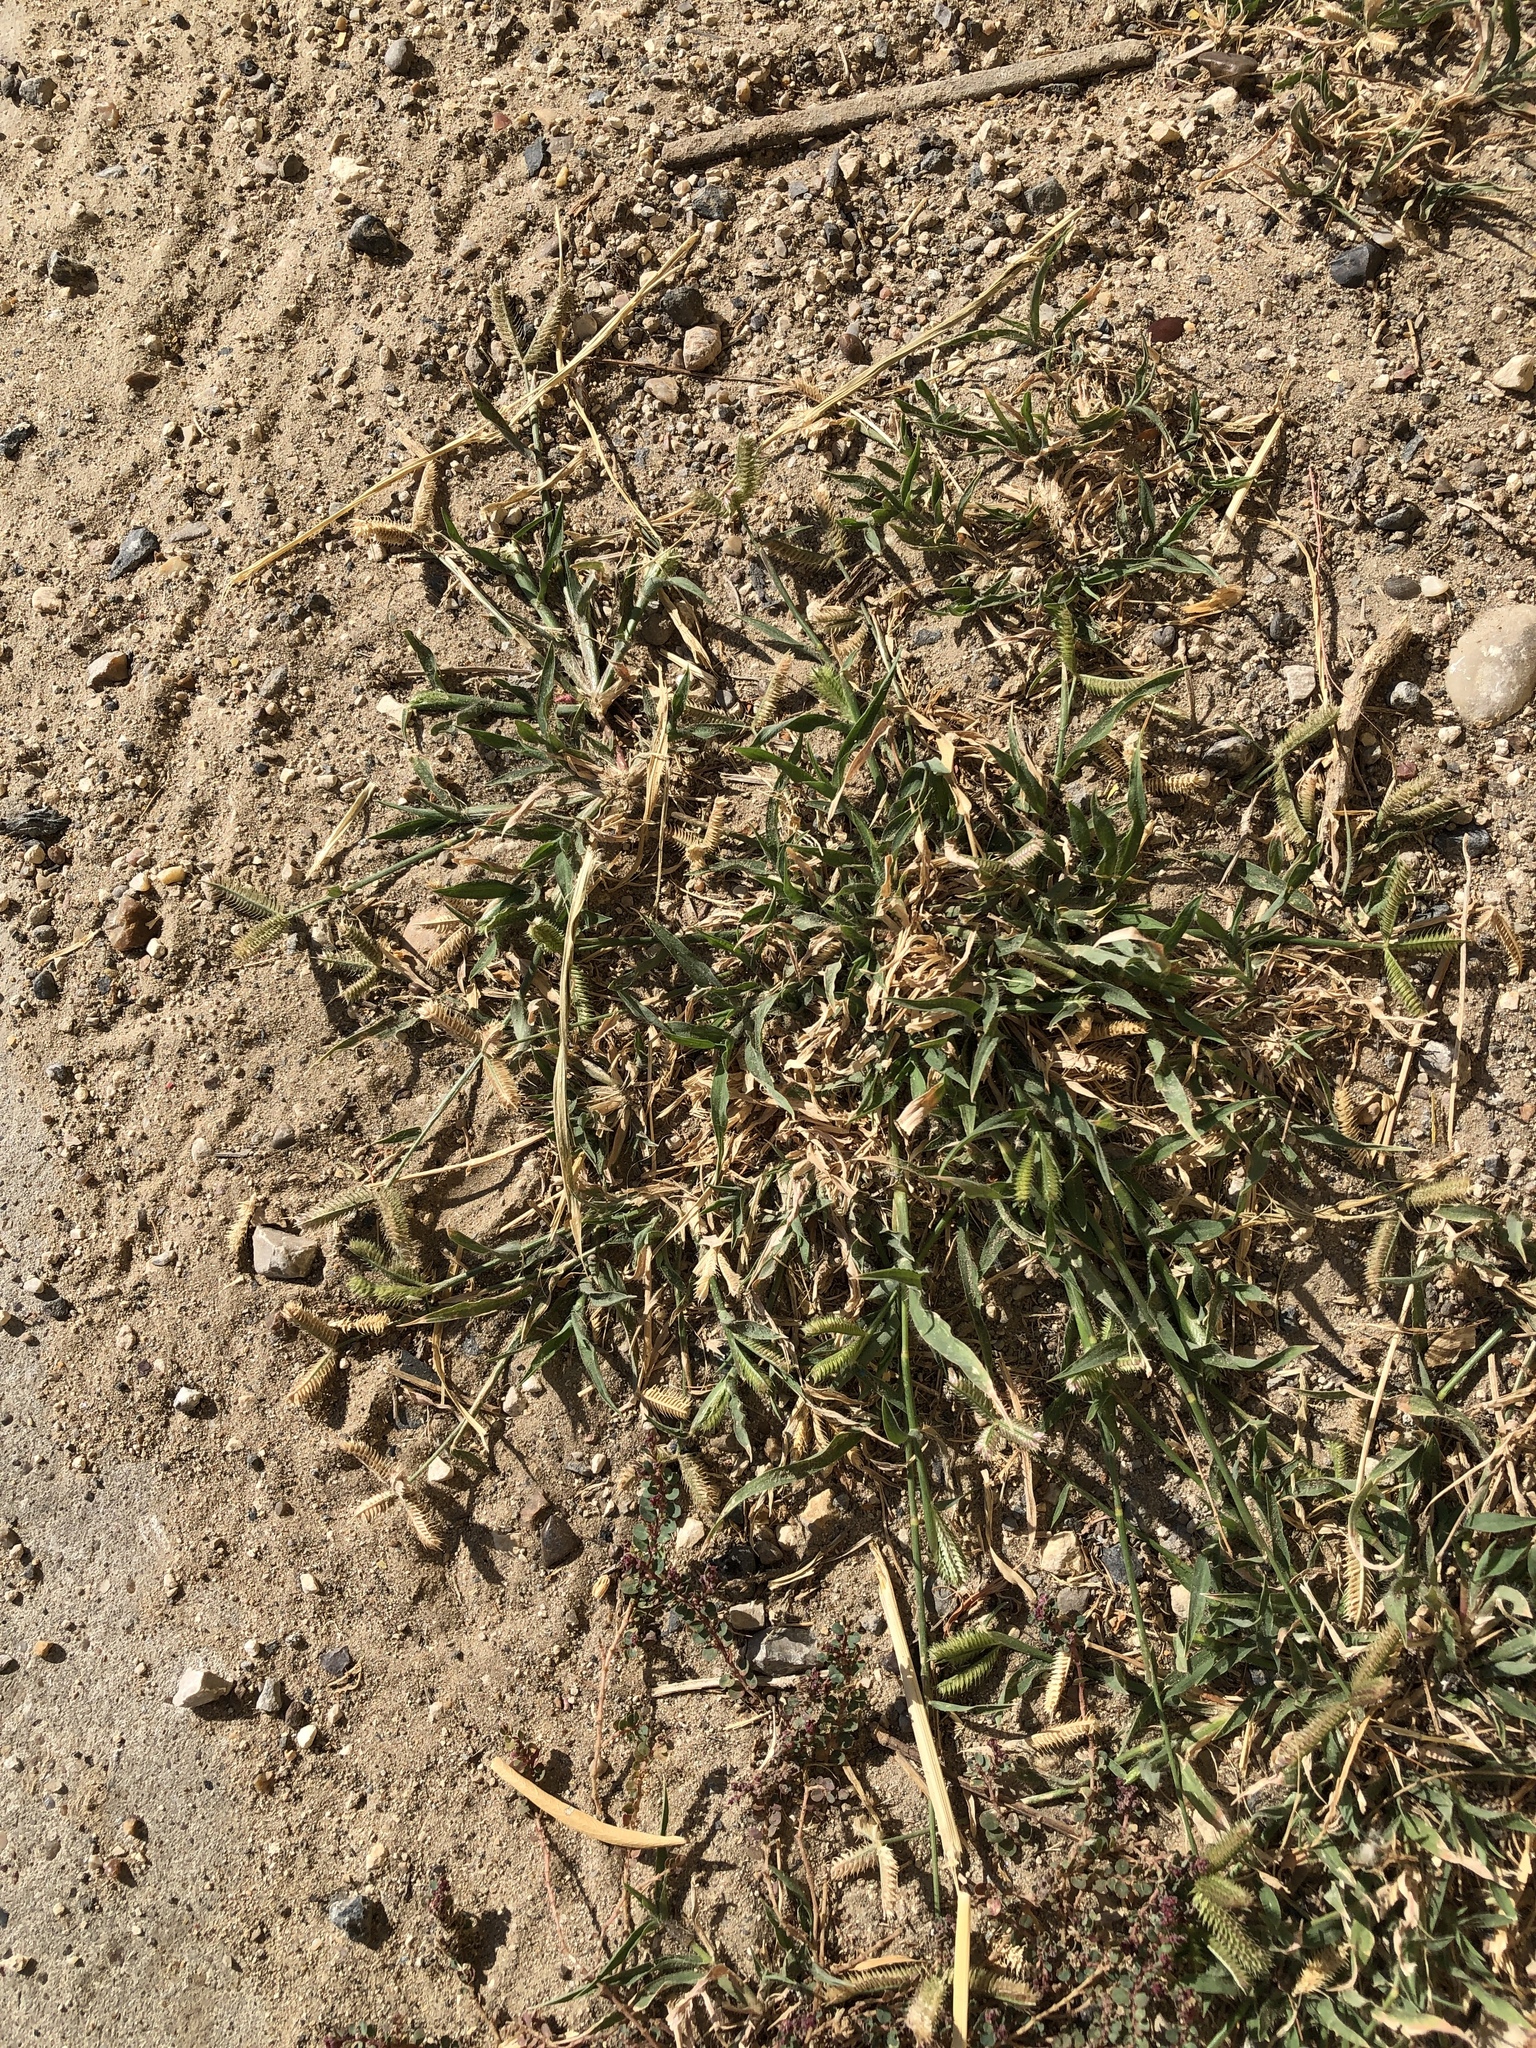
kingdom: Plantae
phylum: Tracheophyta
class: Liliopsida
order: Poales
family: Poaceae
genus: Dactyloctenium
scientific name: Dactyloctenium aegyptium
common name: Egyptian grass
